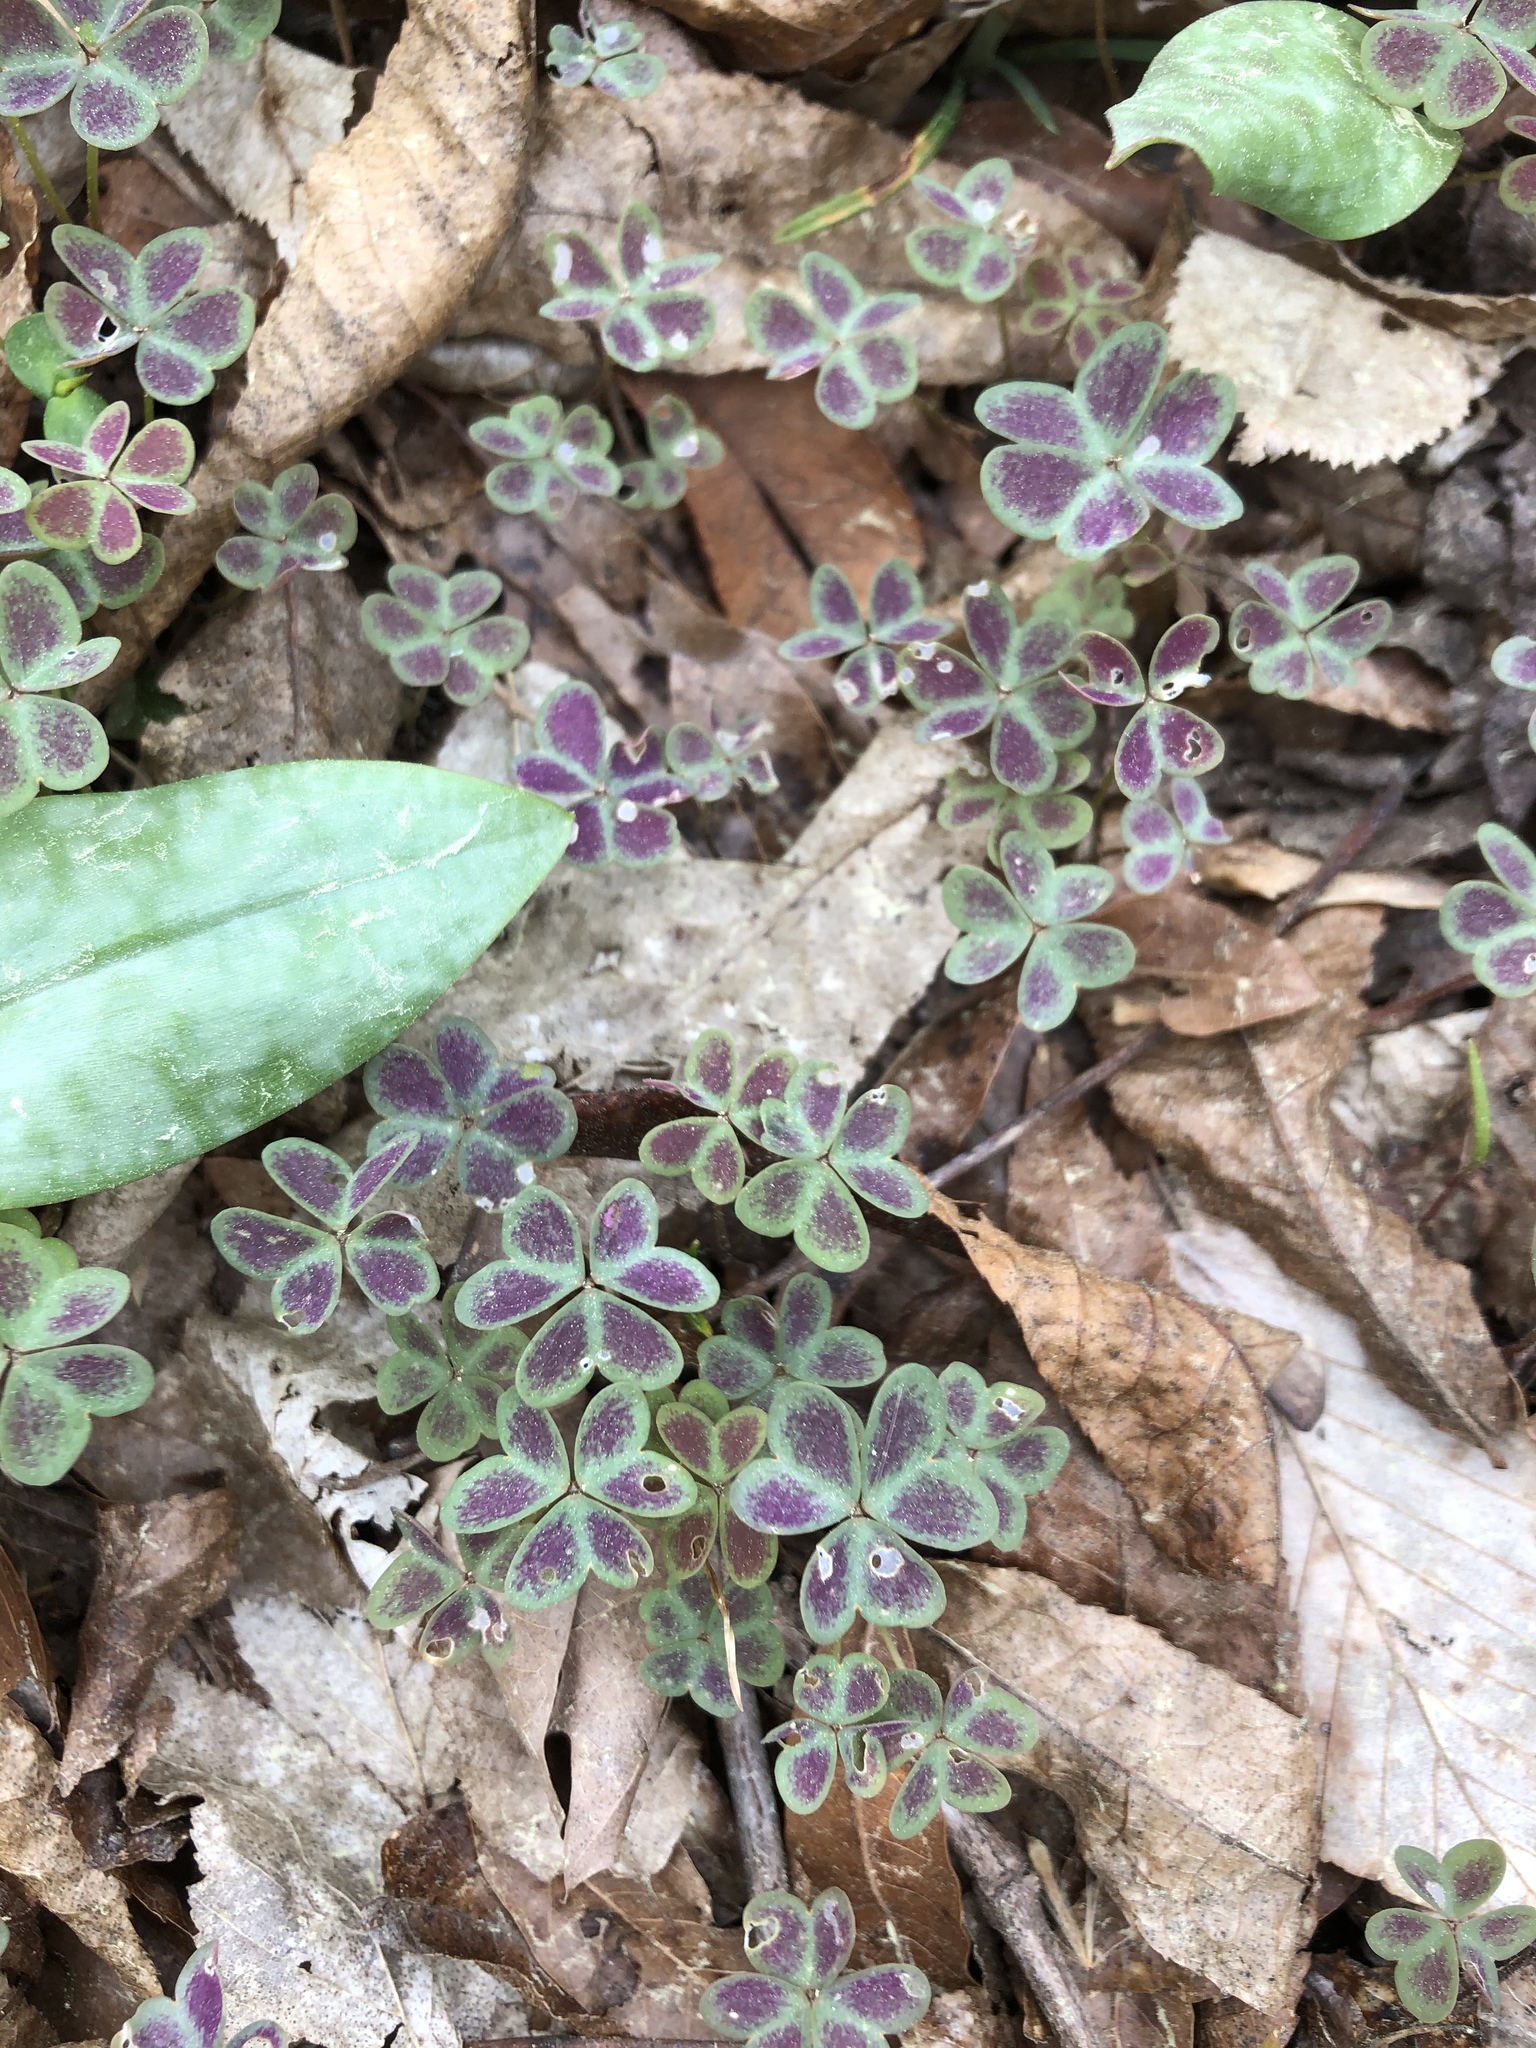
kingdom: Plantae
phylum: Tracheophyta
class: Magnoliopsida
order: Oxalidales
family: Oxalidaceae
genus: Oxalis
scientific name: Oxalis violacea
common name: Violet wood-sorrel
